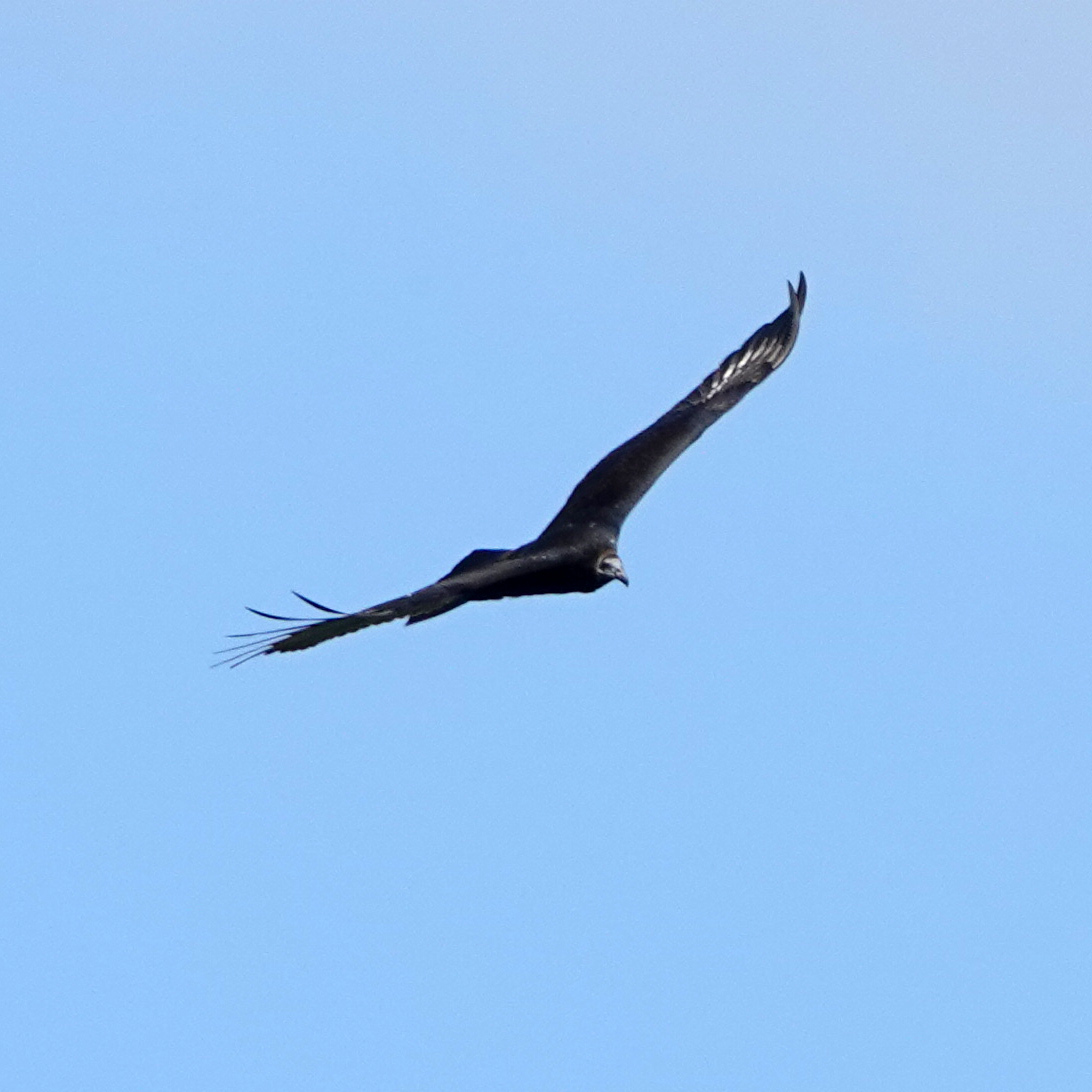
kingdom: Animalia
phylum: Chordata
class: Aves
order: Accipitriformes
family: Cathartidae
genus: Cathartes
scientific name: Cathartes aura
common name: Turkey vulture
